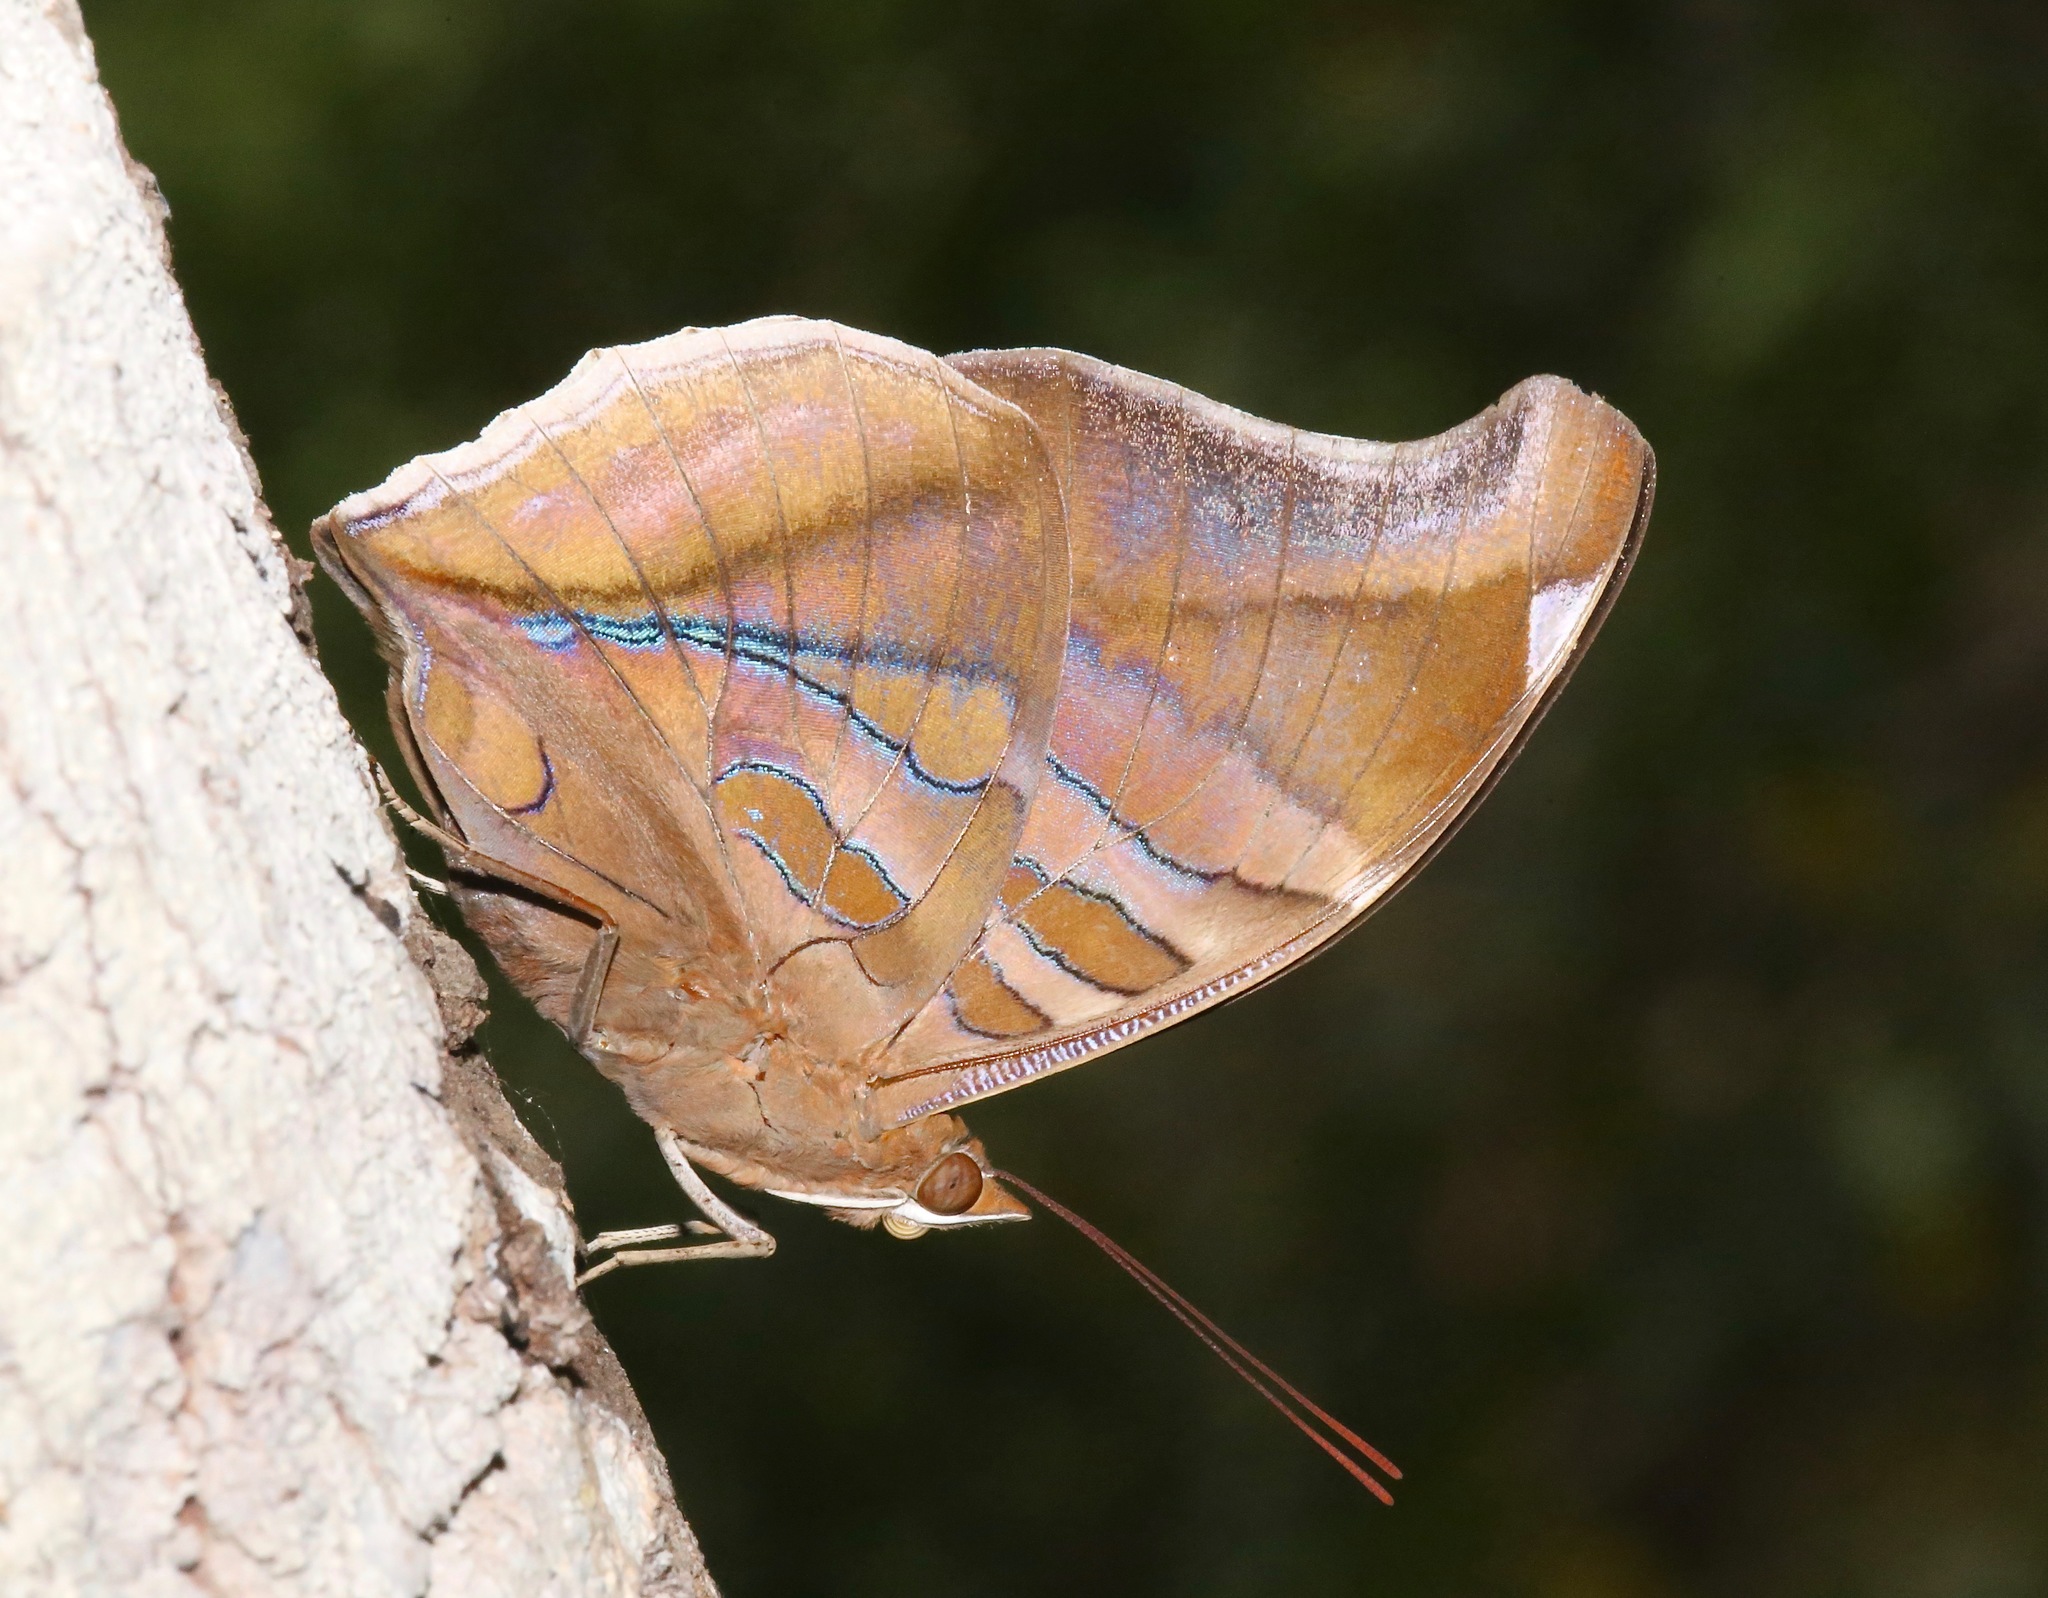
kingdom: Animalia
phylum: Arthropoda
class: Insecta
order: Lepidoptera
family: Nymphalidae
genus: Historis
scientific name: Historis odius
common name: Orion cecropian
